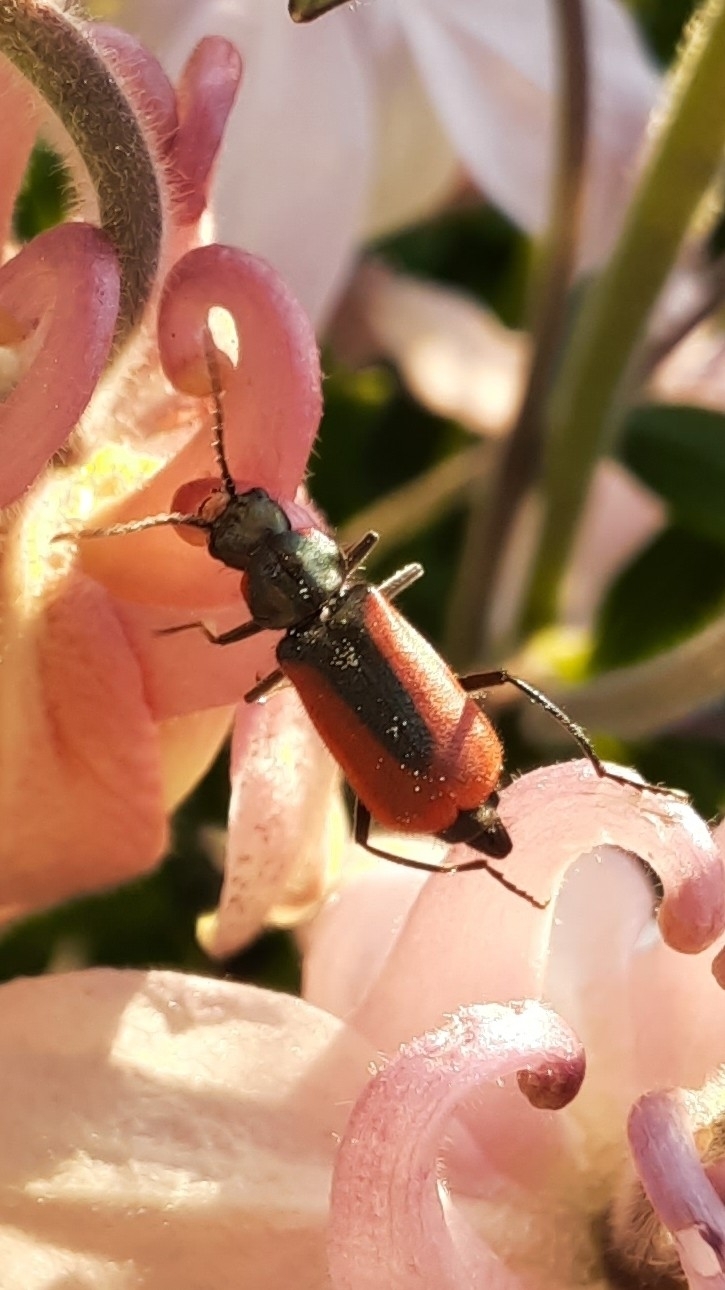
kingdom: Animalia
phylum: Arthropoda
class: Insecta
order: Coleoptera
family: Melyridae
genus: Malachius
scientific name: Malachius aeneus
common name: Scarlet malachite beetle
